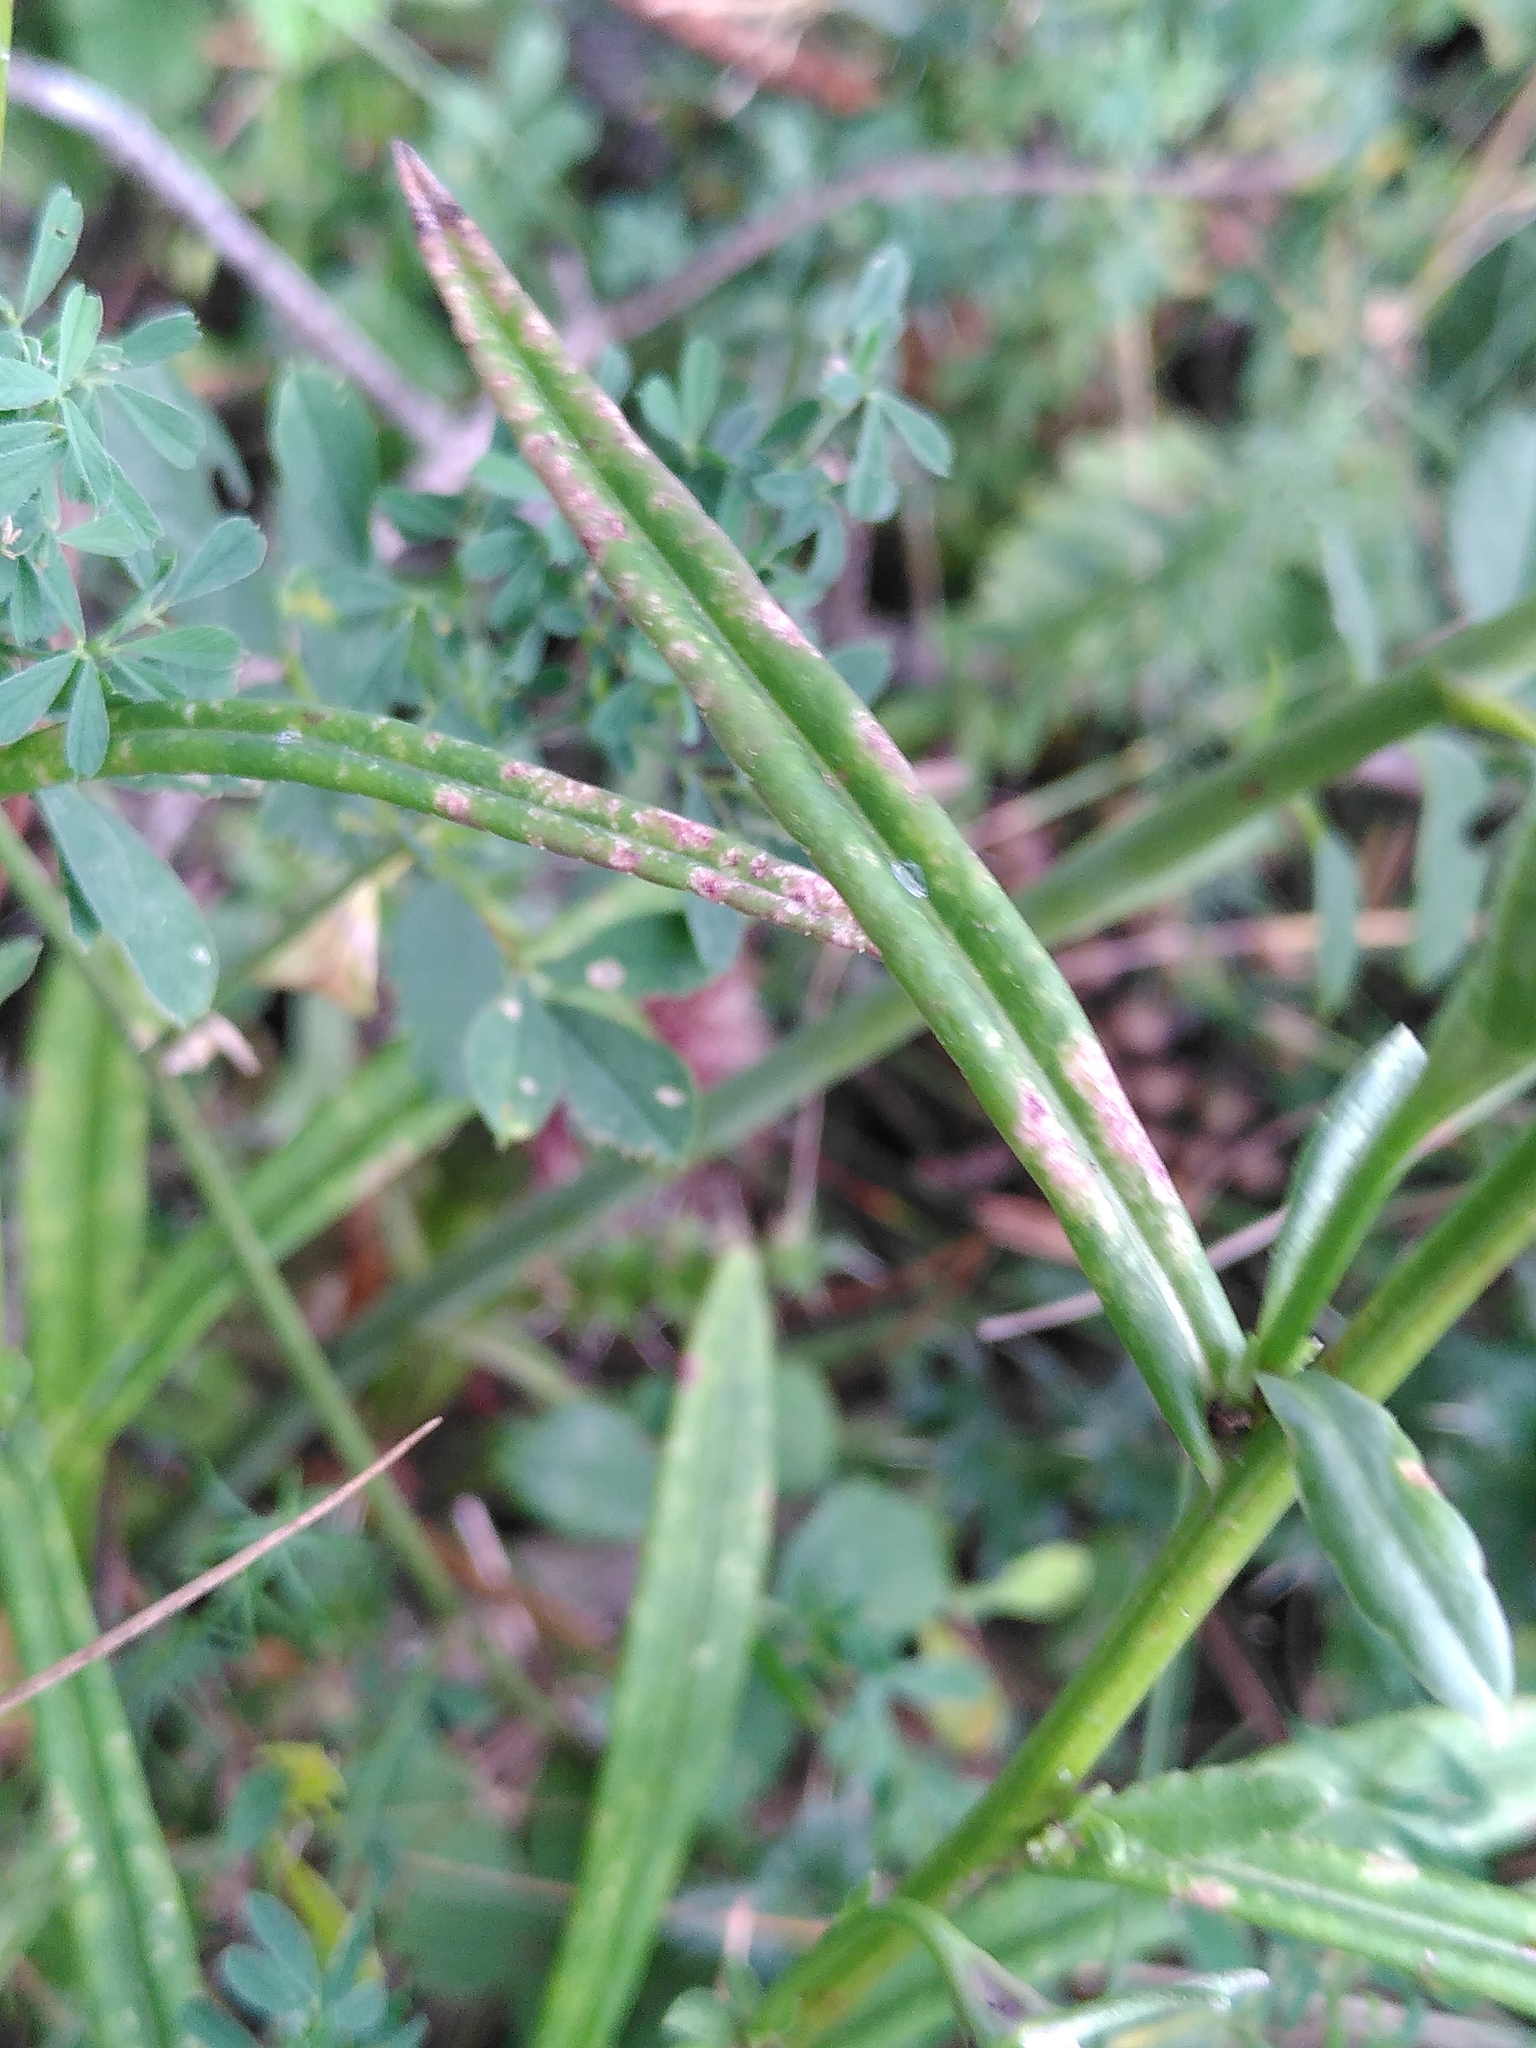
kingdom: Plantae
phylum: Tracheophyta
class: Magnoliopsida
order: Asterales
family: Campanulaceae
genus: Campanula
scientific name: Campanula persicifolia
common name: Peach-leaved bellflower
